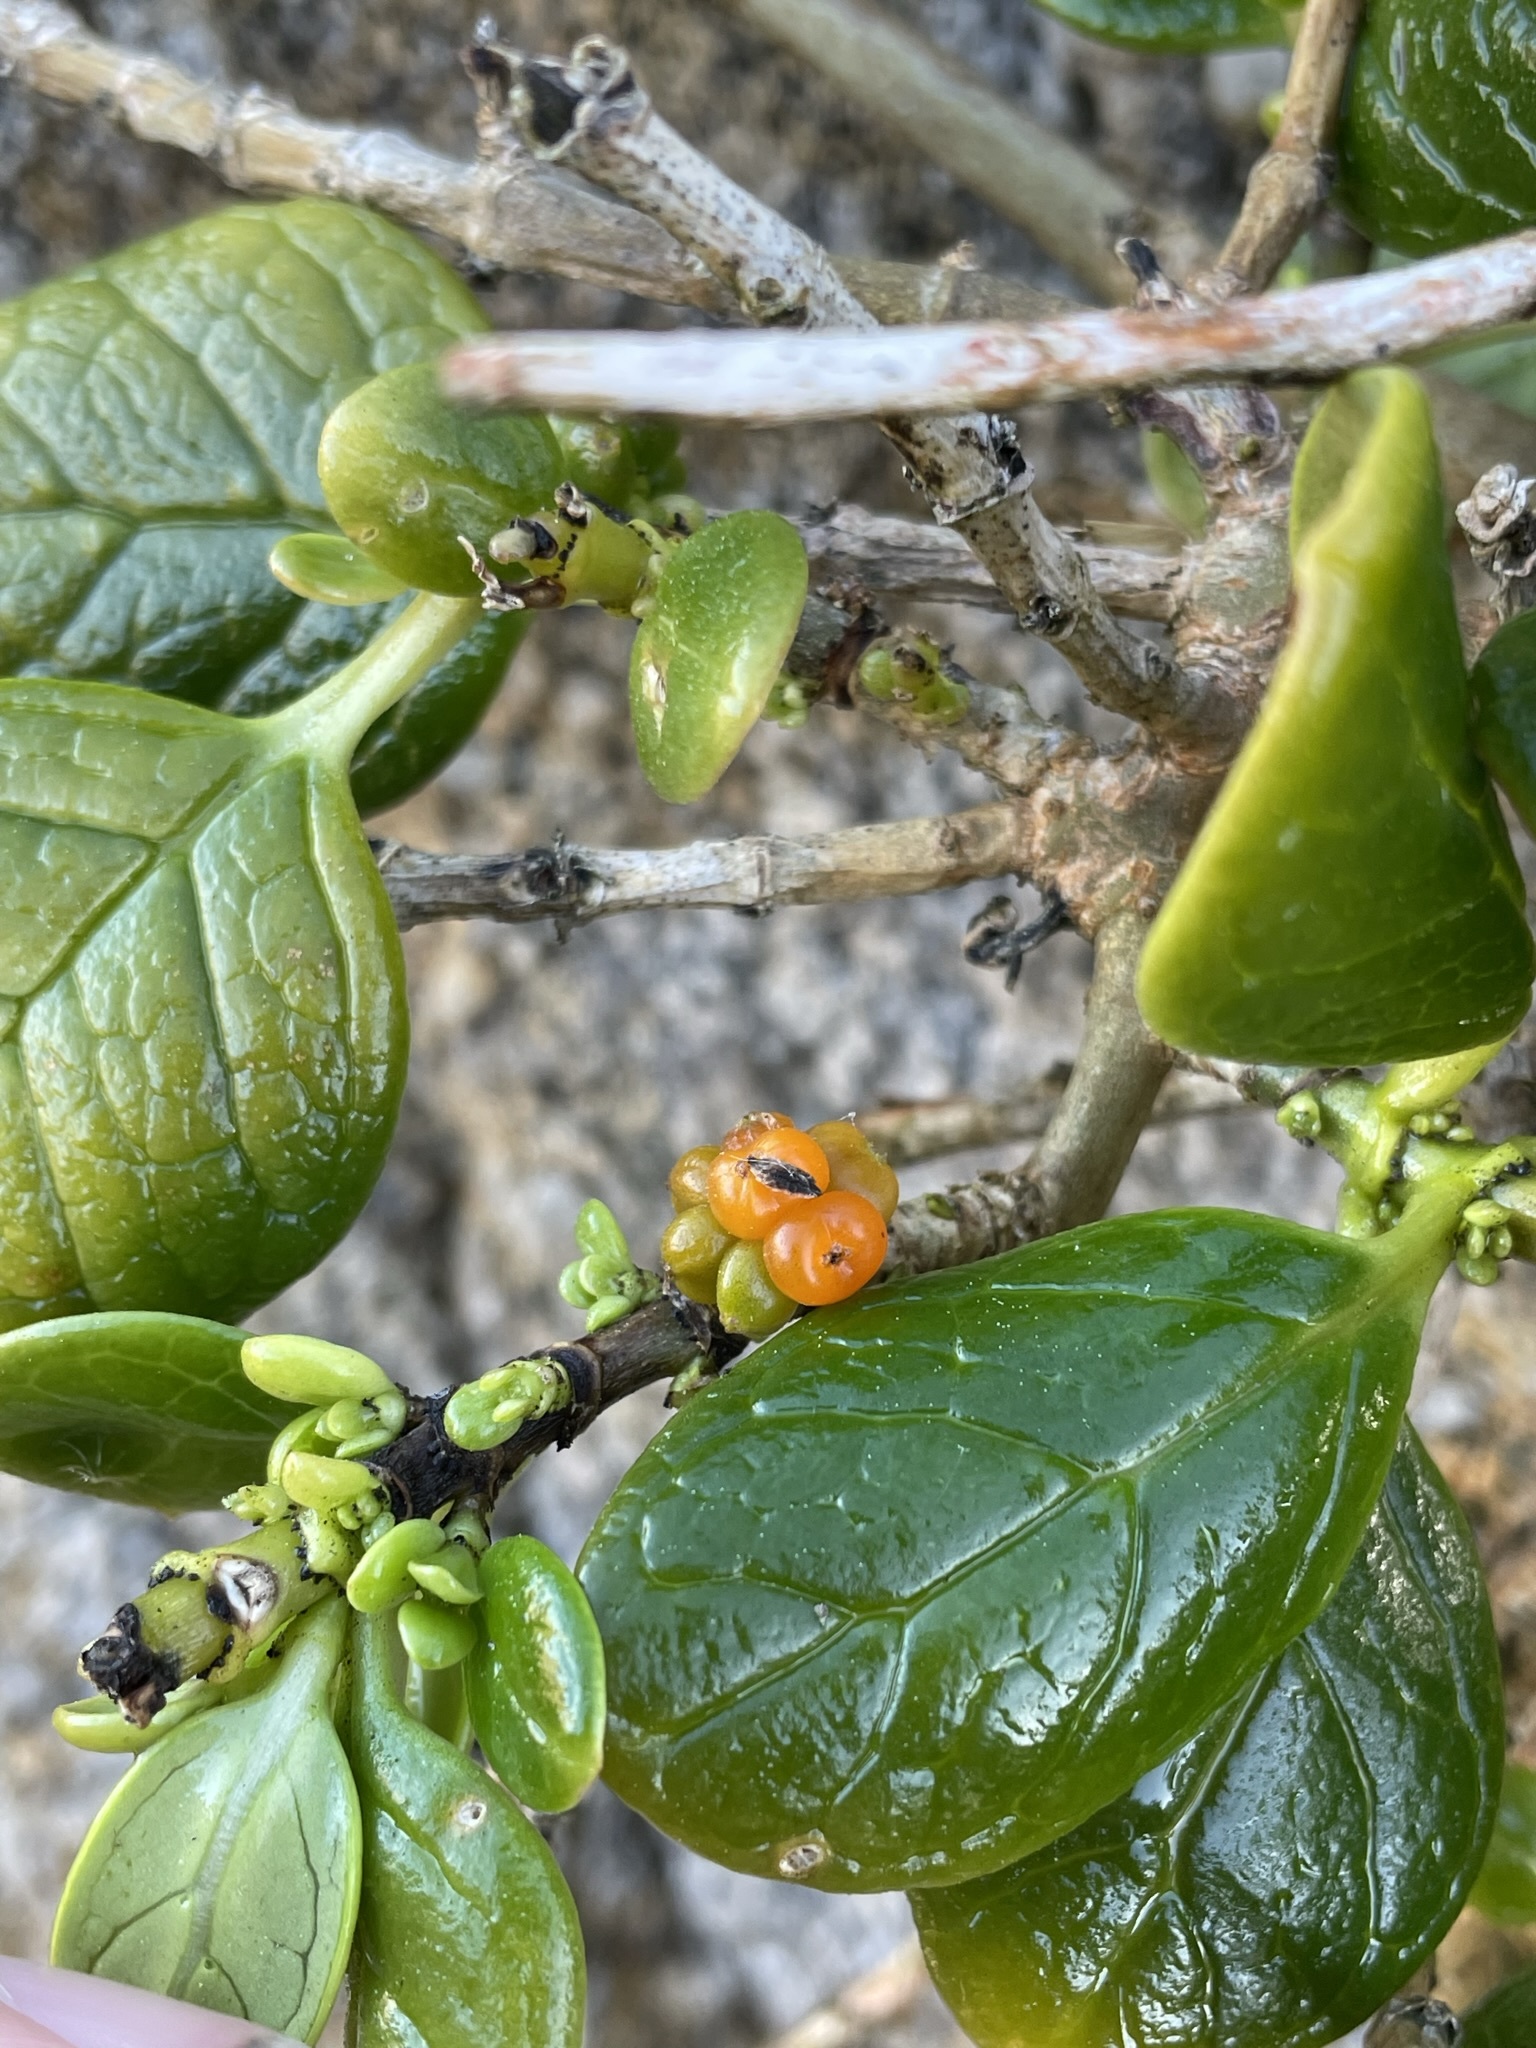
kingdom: Plantae
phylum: Tracheophyta
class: Magnoliopsida
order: Gentianales
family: Rubiaceae
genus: Coprosma
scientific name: Coprosma repens
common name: Tree bedstraw
